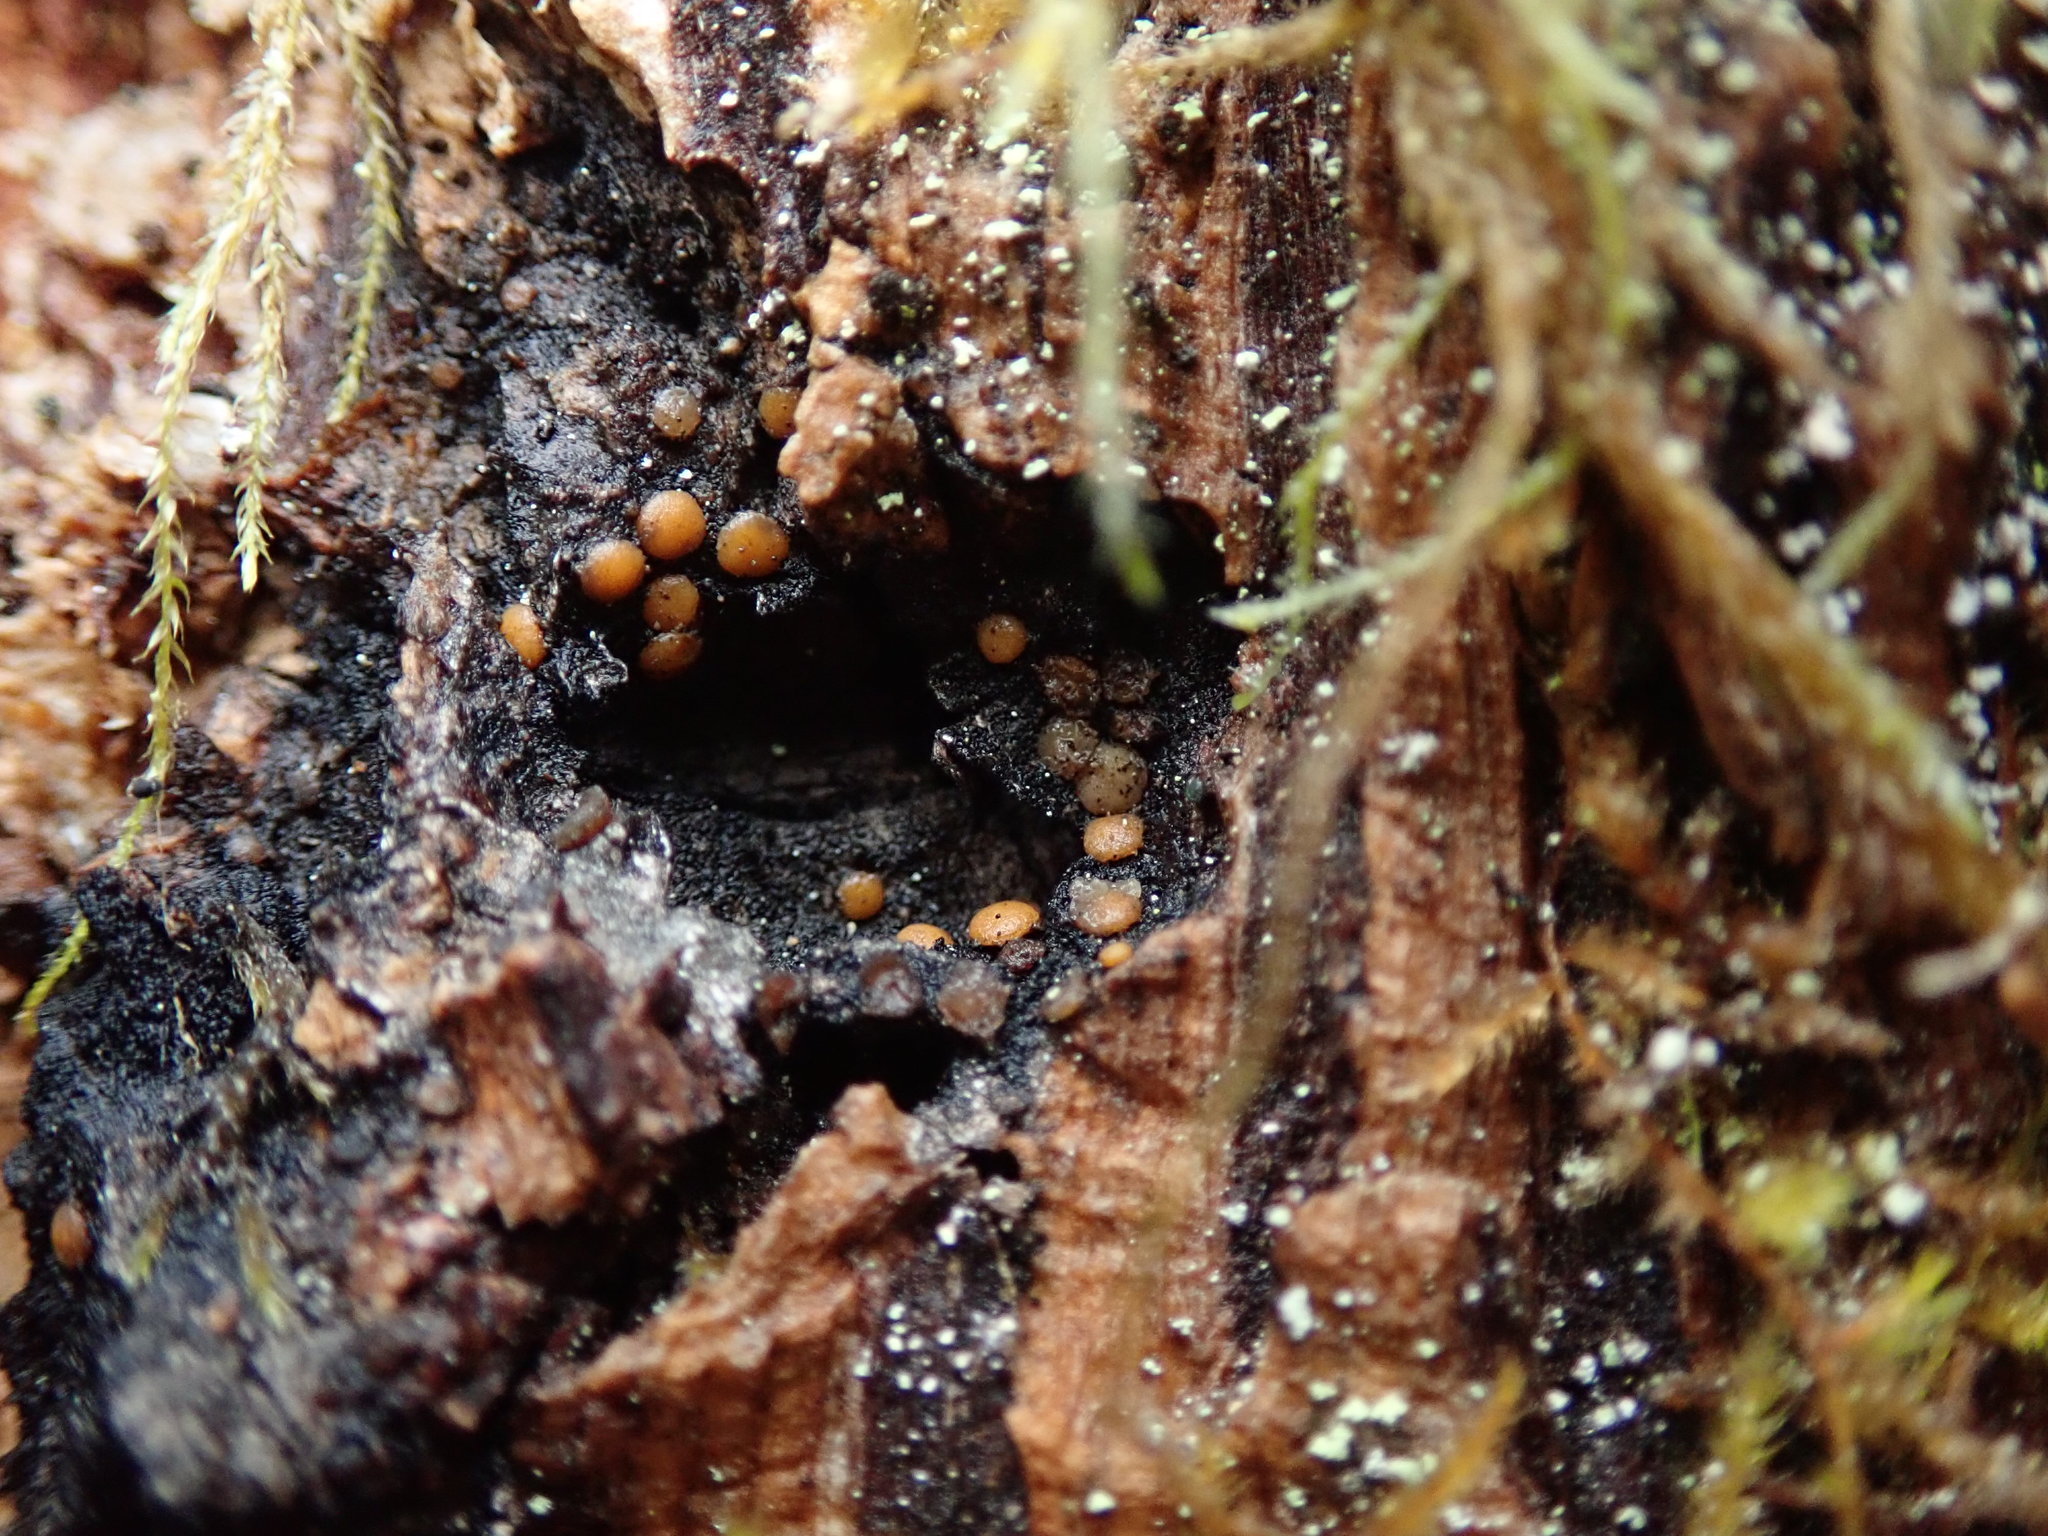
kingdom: Fungi
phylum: Ascomycota
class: Sareomycetes
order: Sareales
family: Sareaceae
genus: Sarea
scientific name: Sarea resinae
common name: Sarea lichen
